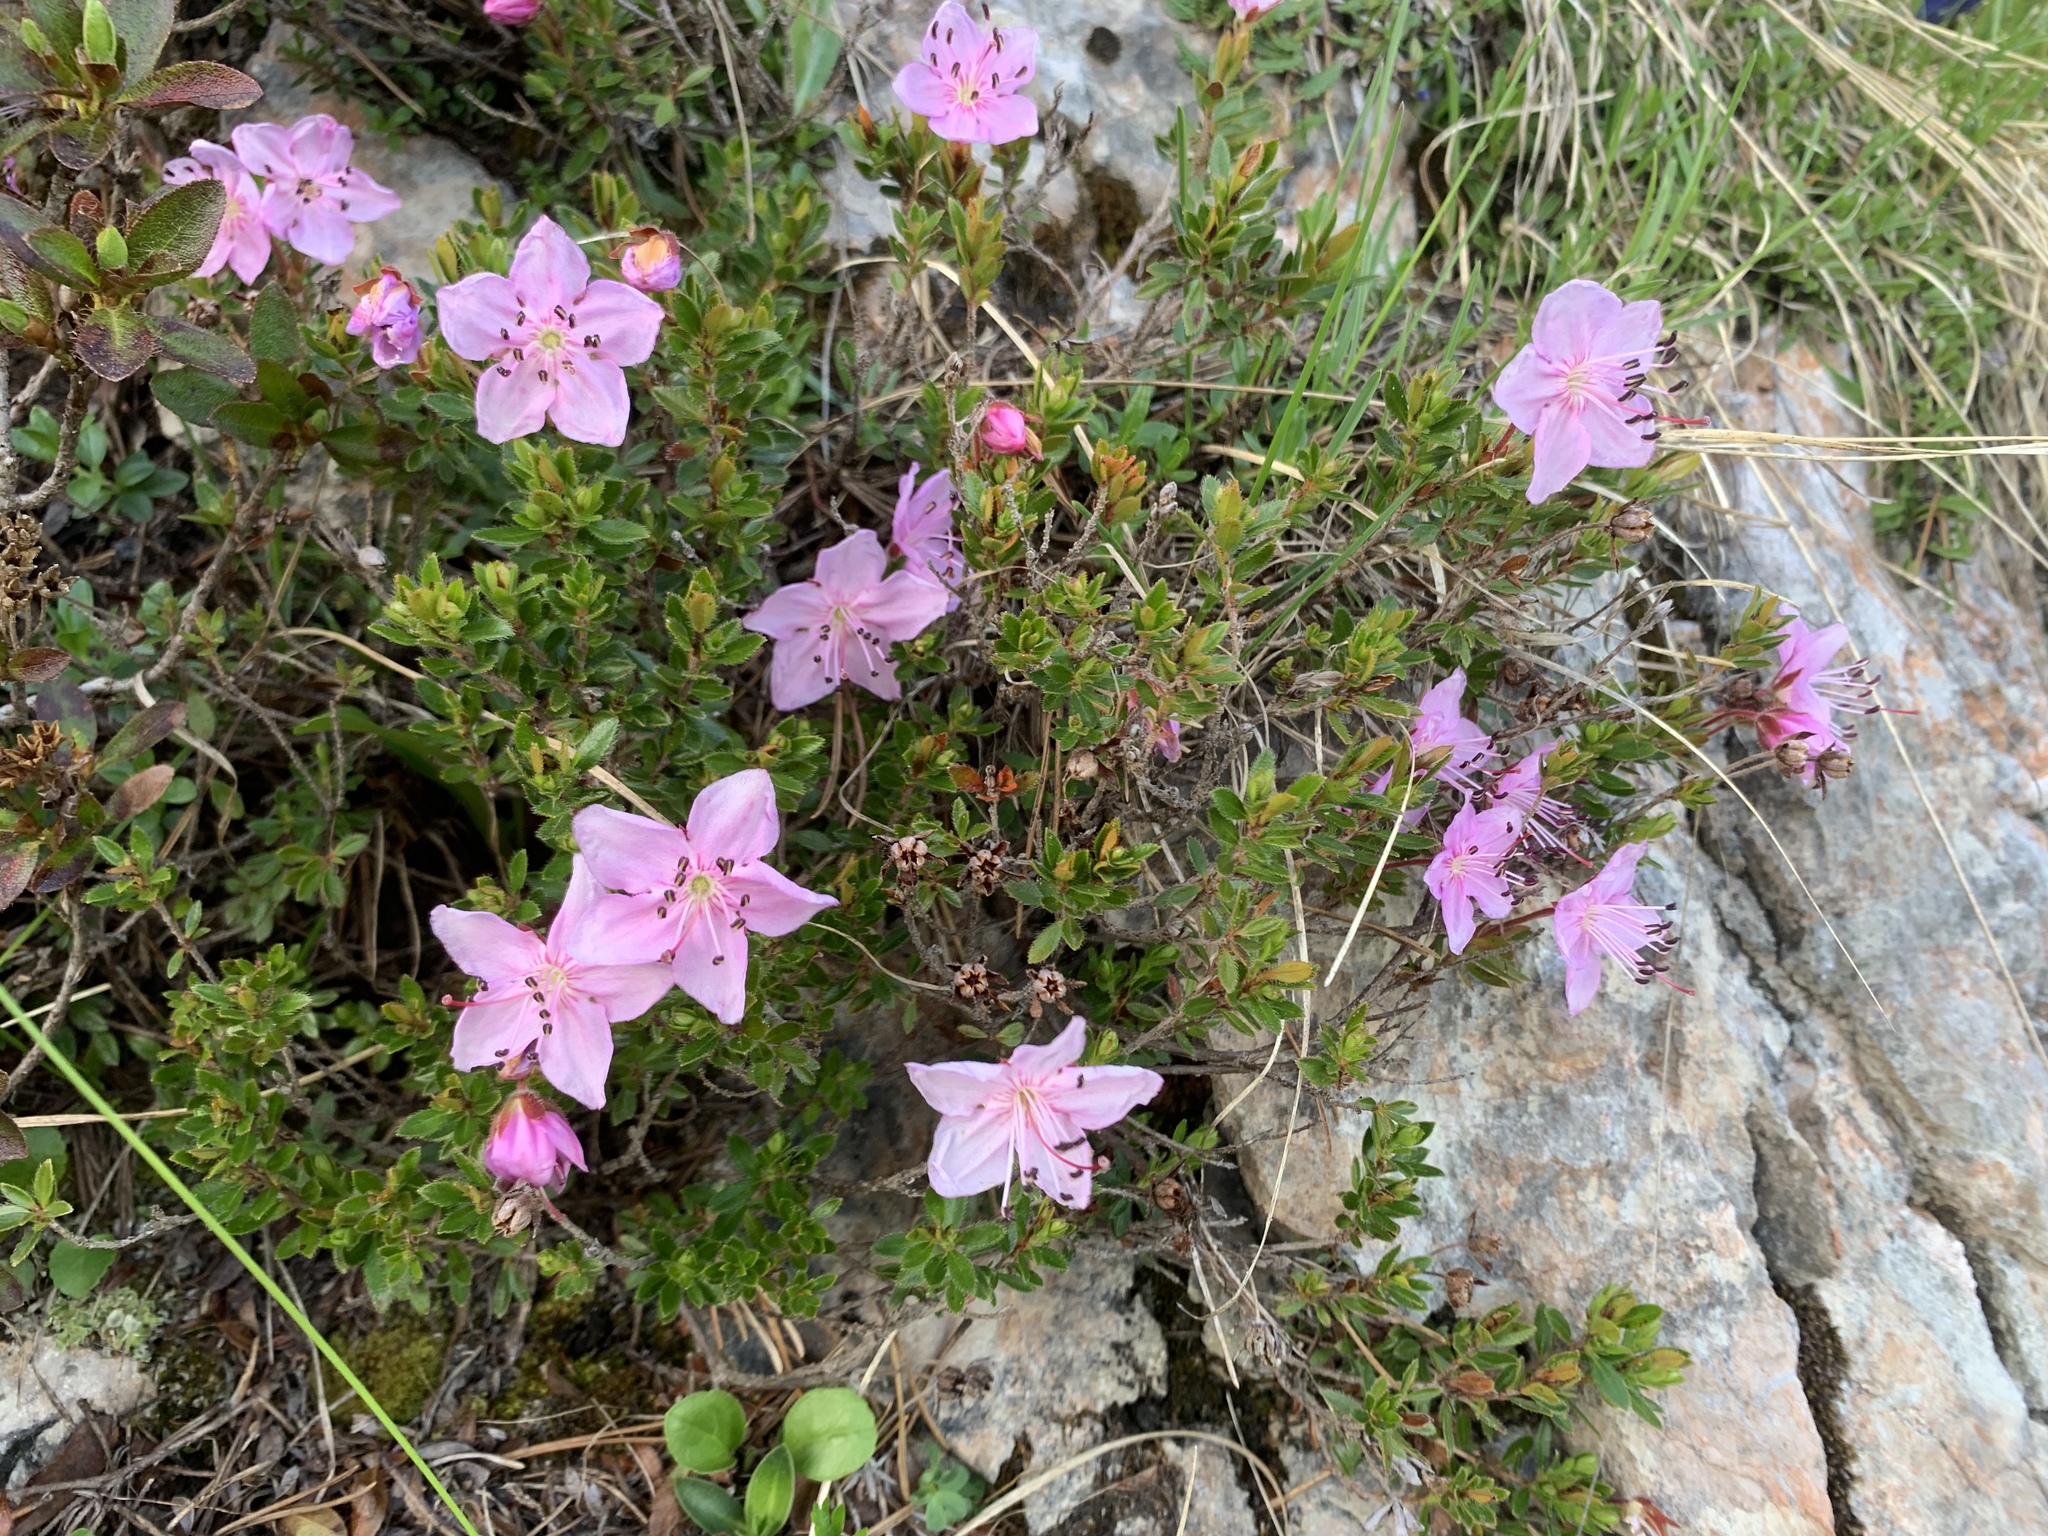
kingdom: Plantae
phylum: Tracheophyta
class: Magnoliopsida
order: Ericales
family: Ericaceae
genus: Rhodothamnus
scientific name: Rhodothamnus chamaecistus
